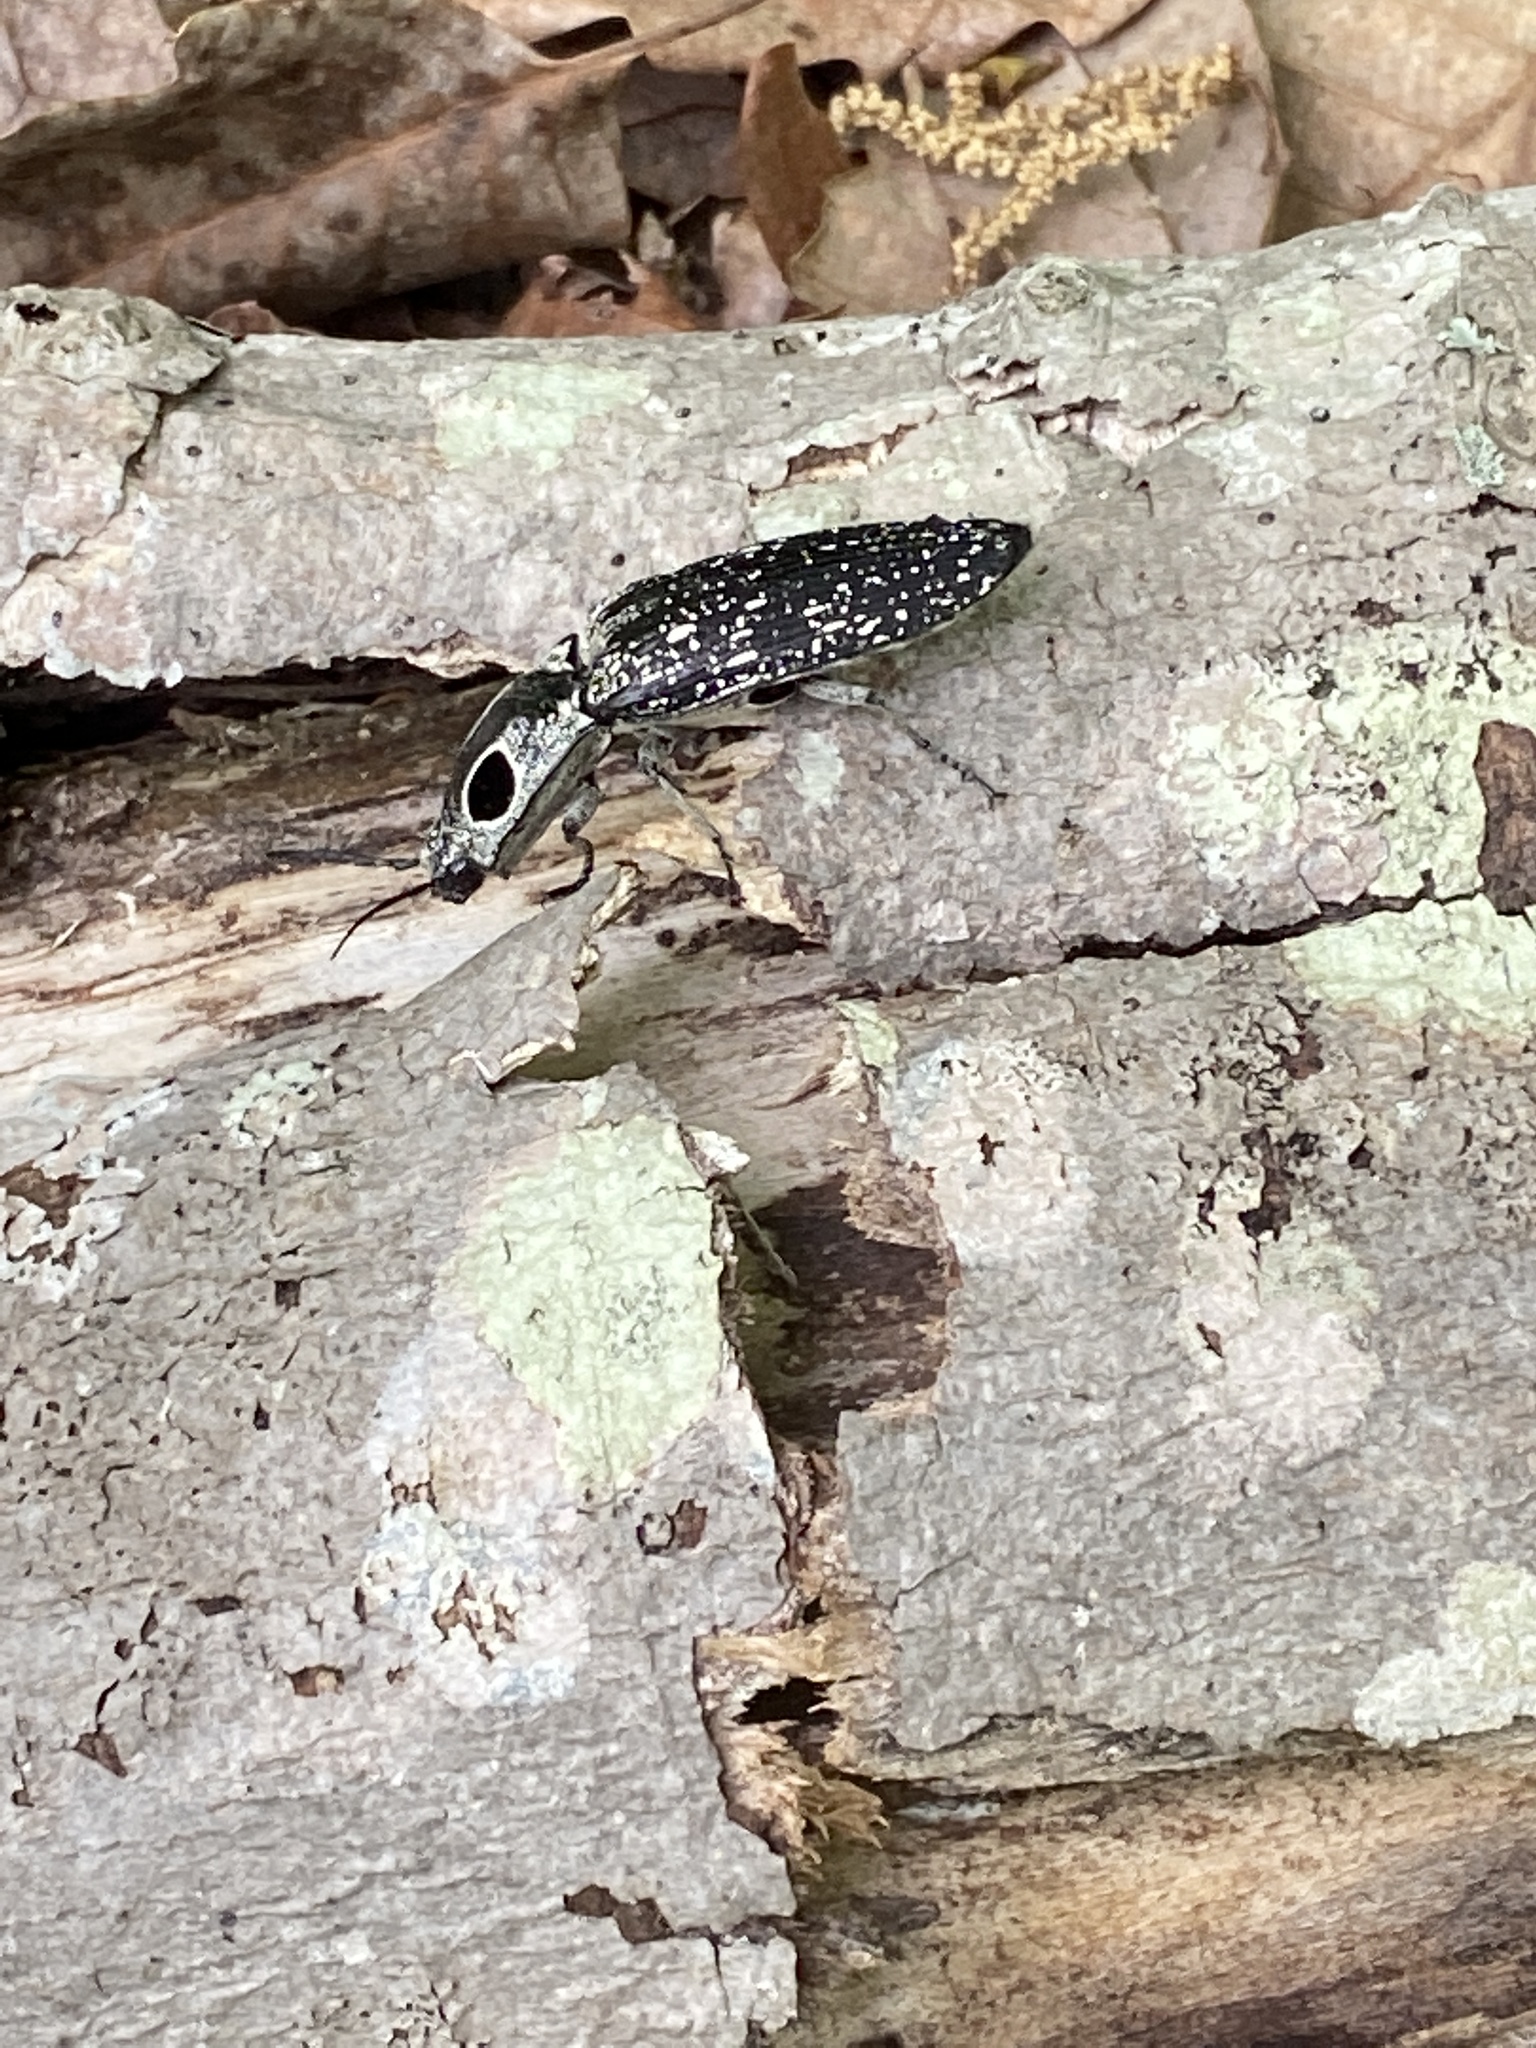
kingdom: Animalia
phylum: Arthropoda
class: Insecta
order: Coleoptera
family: Elateridae
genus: Alaus
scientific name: Alaus oculatus
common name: Eastern eyed click beetle
